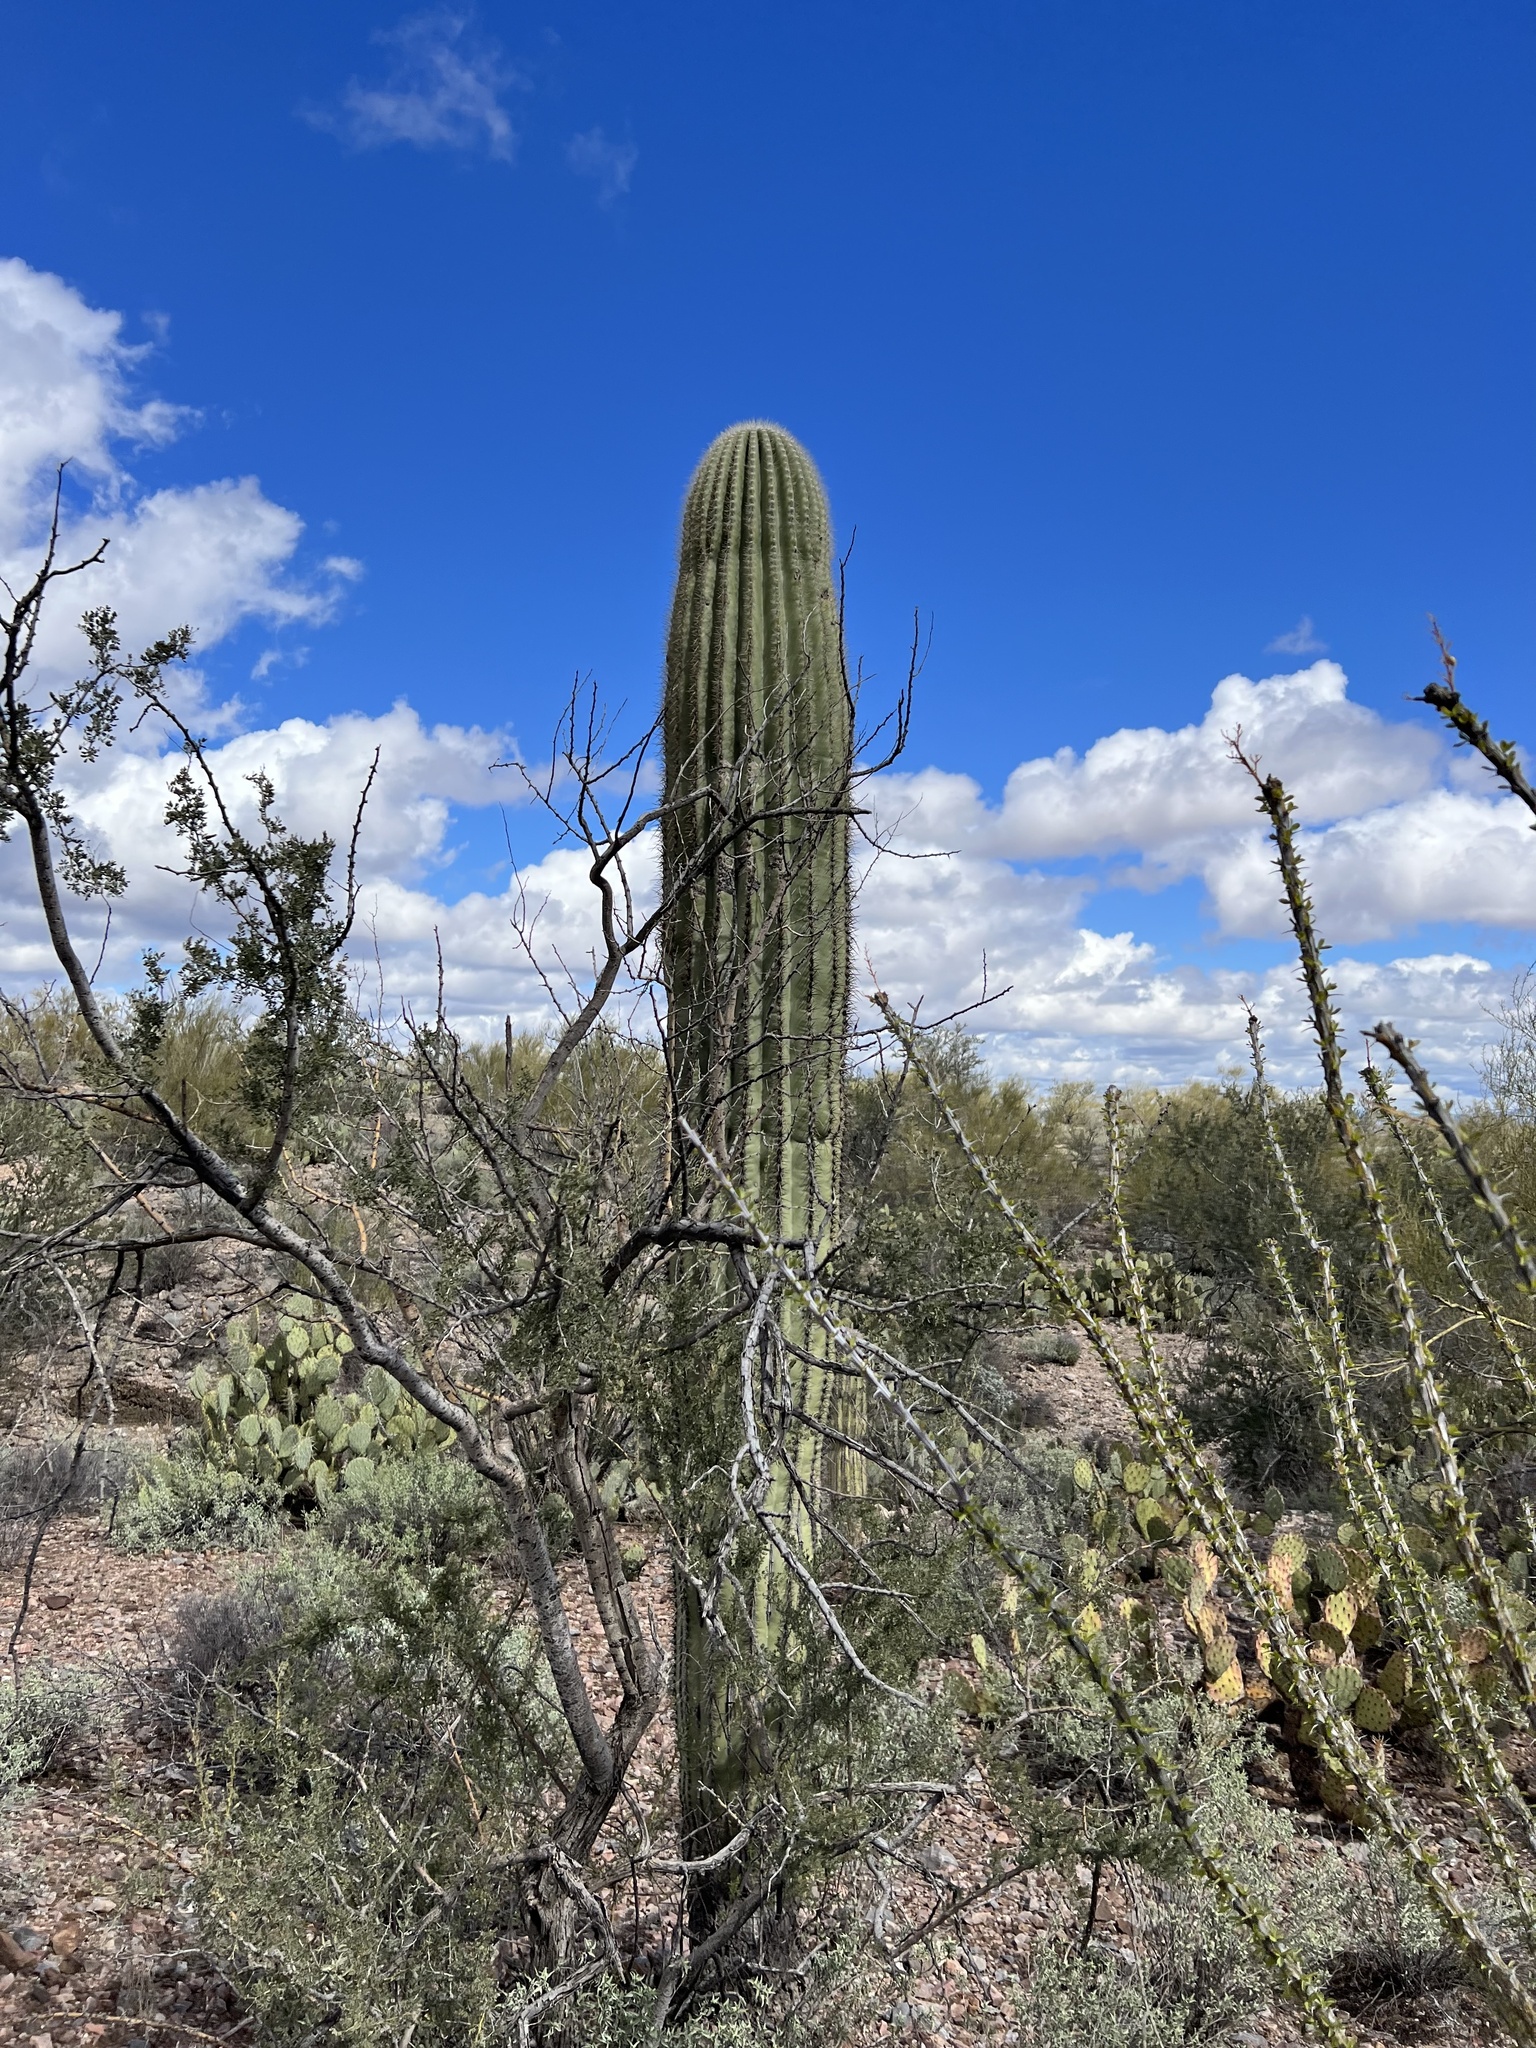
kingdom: Plantae
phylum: Tracheophyta
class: Magnoliopsida
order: Caryophyllales
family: Cactaceae
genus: Carnegiea
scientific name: Carnegiea gigantea
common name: Saguaro
